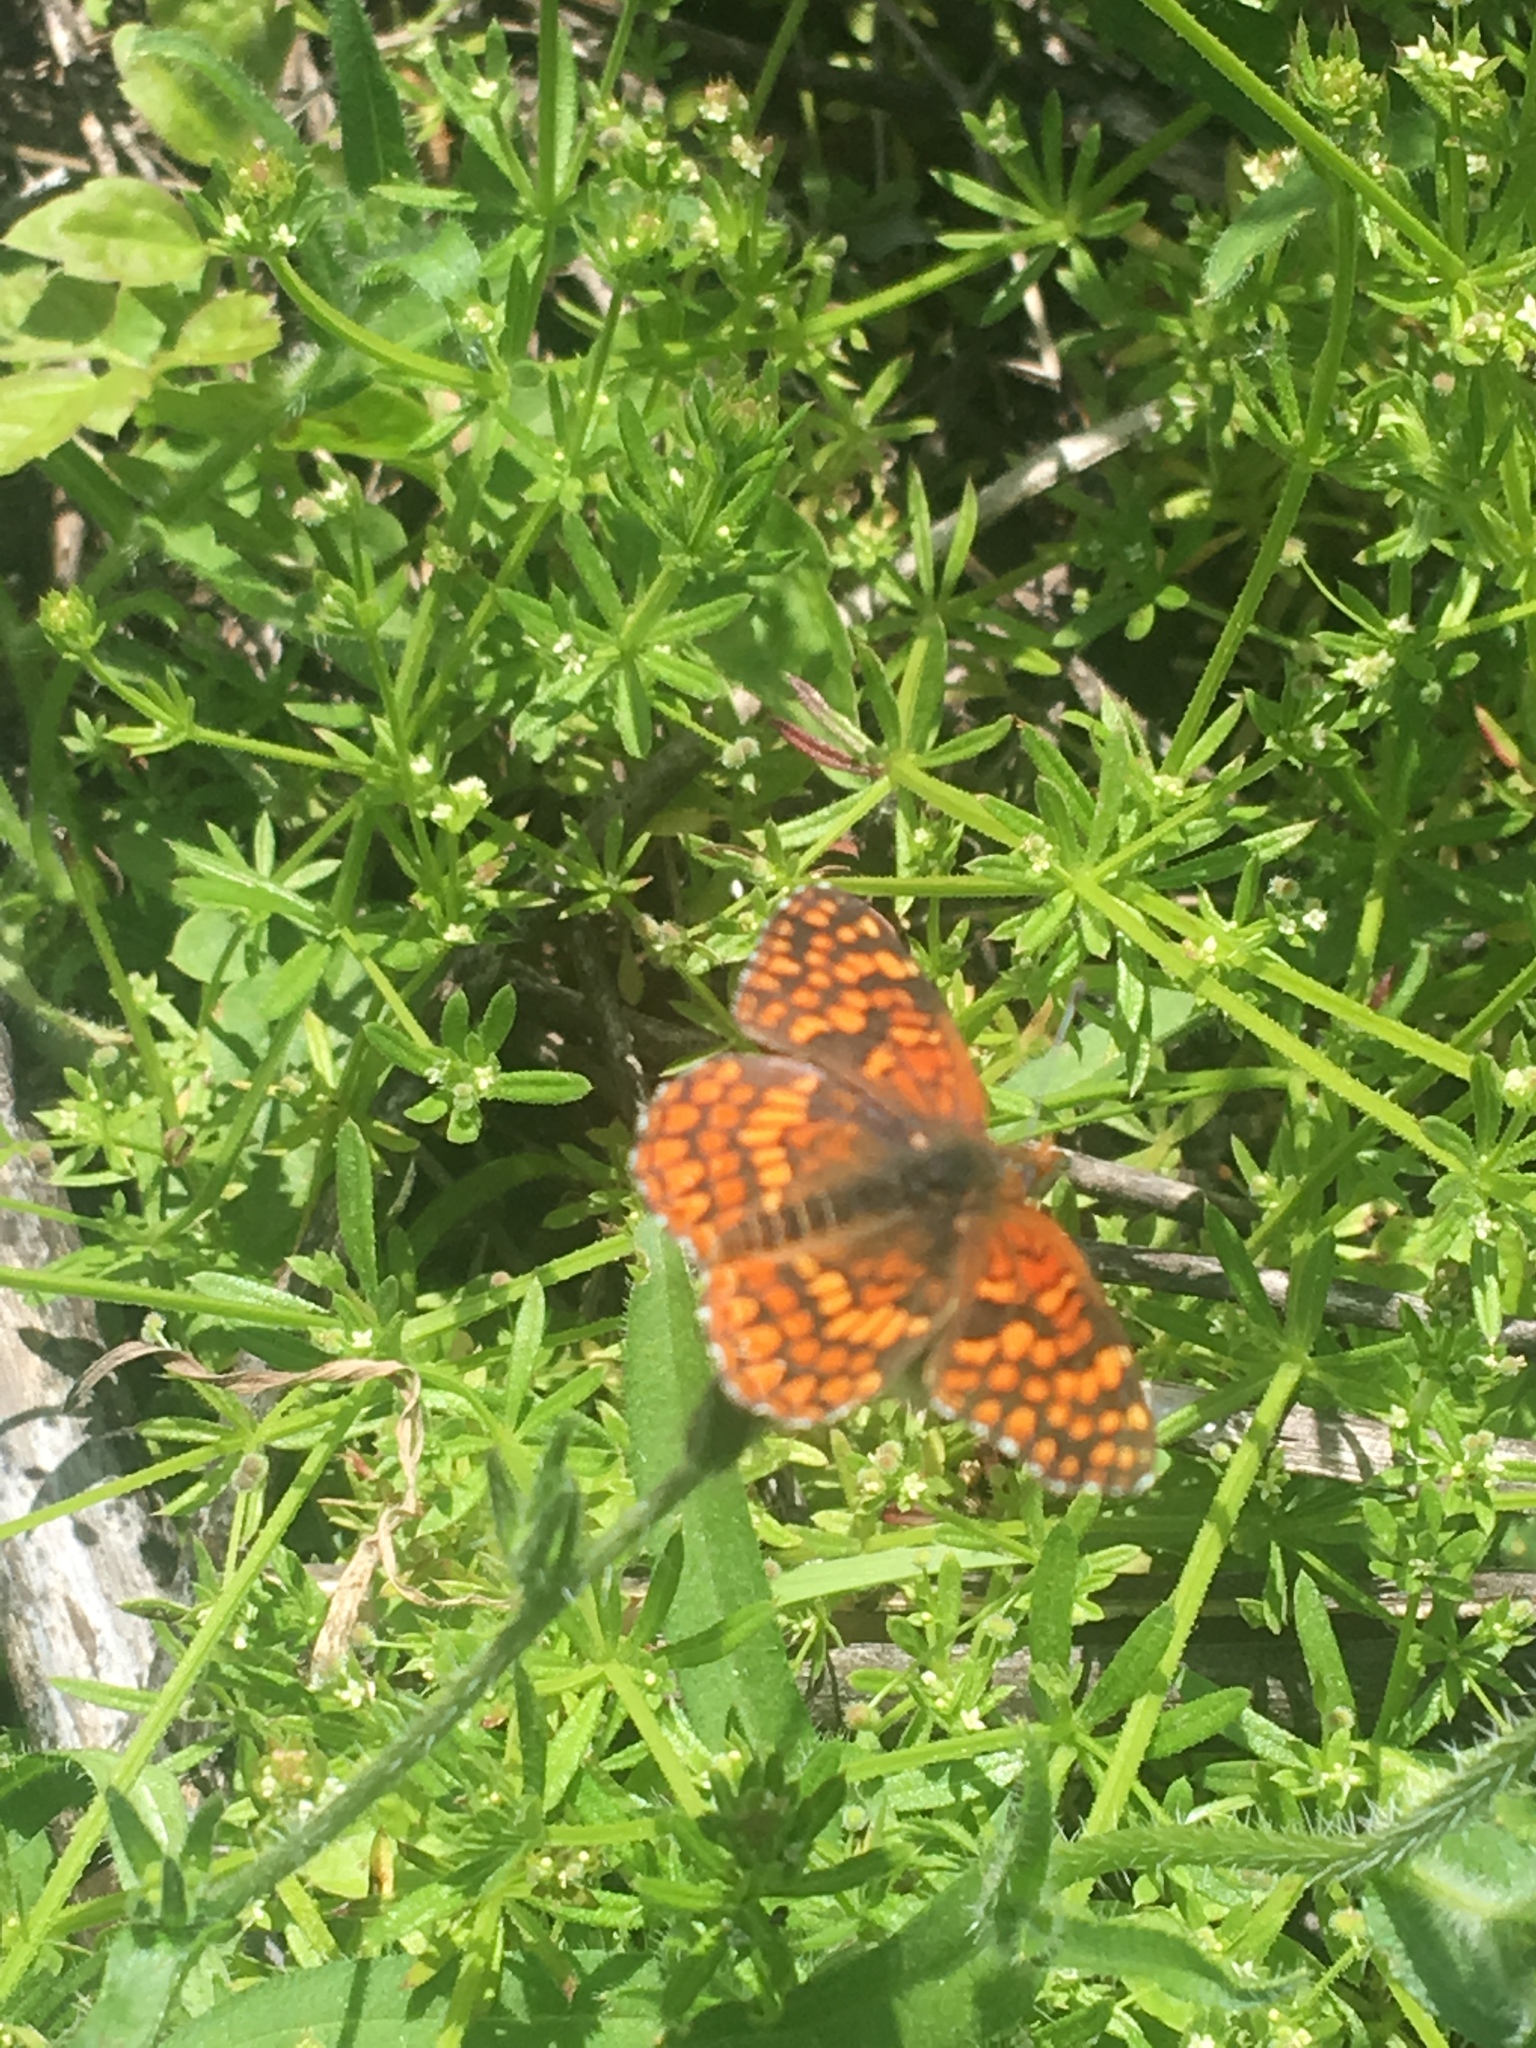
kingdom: Animalia
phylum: Arthropoda
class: Insecta
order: Lepidoptera
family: Nymphalidae
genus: Chlosyne
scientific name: Chlosyne gabbii
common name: Gabb's checkerspot
